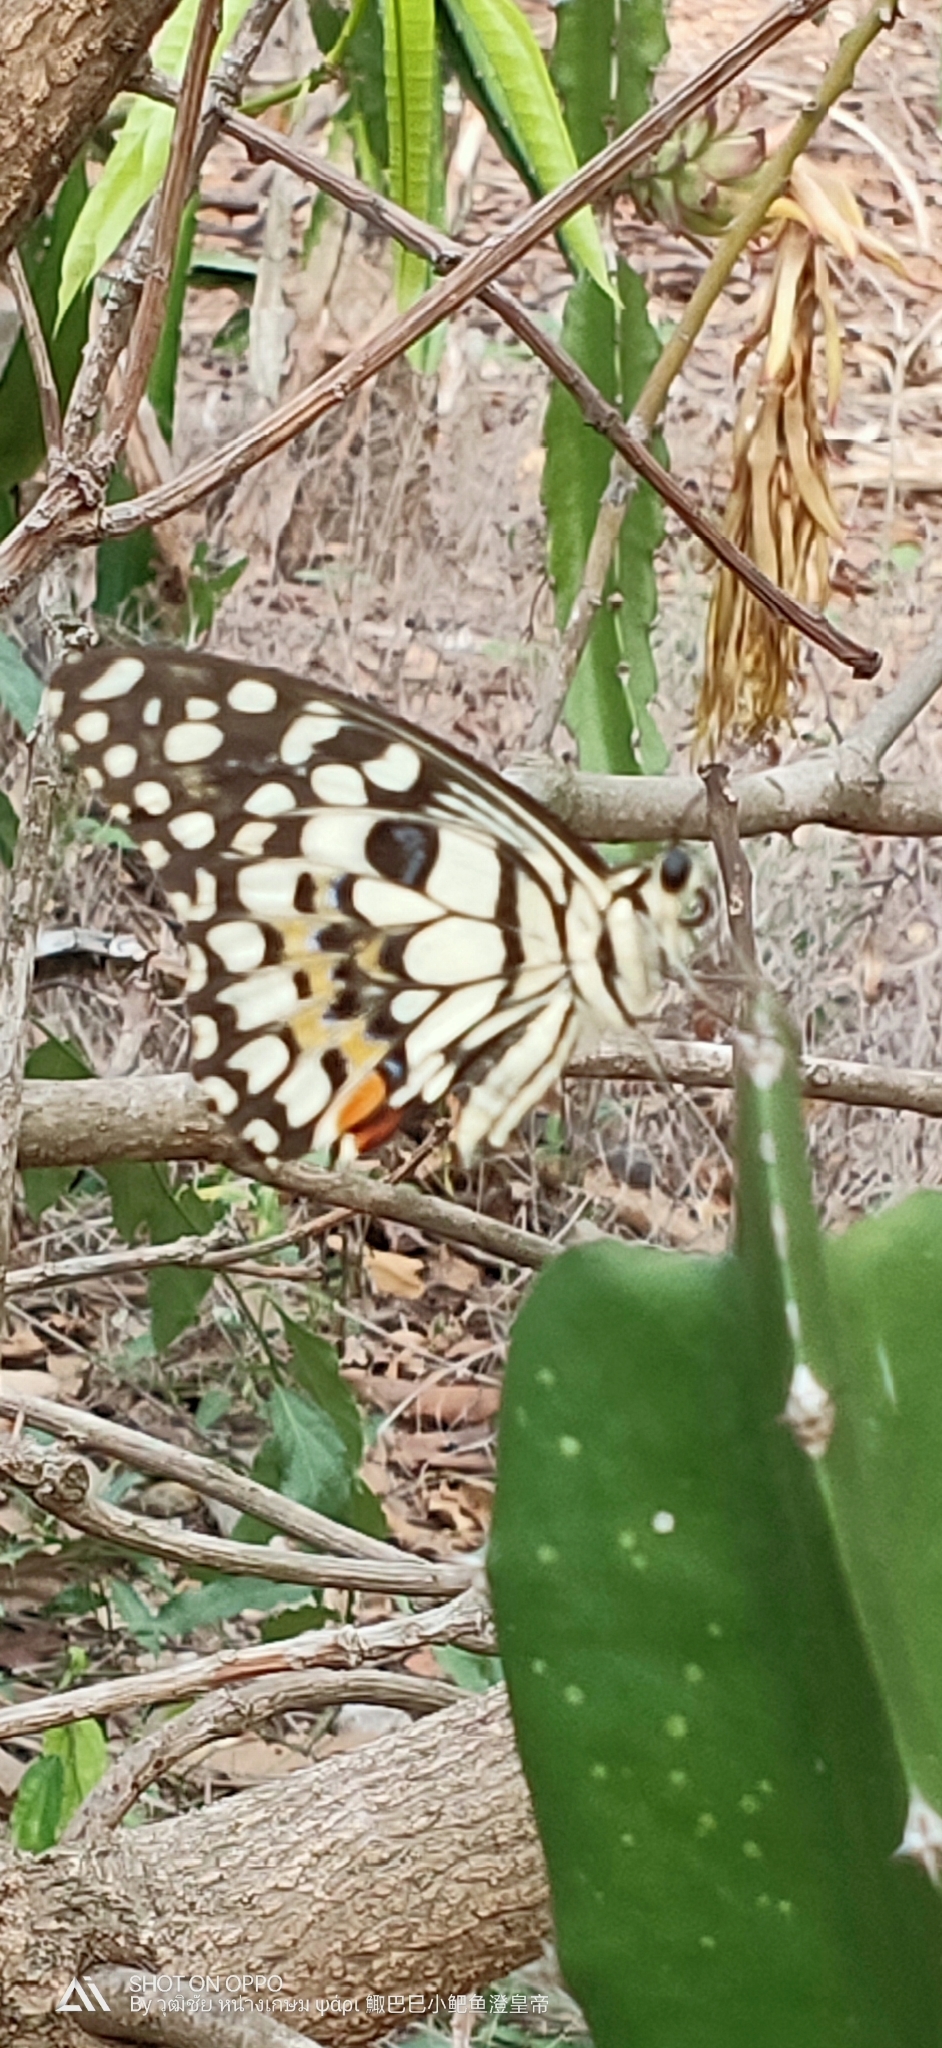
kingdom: Animalia
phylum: Arthropoda
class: Insecta
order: Lepidoptera
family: Papilionidae
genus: Papilio
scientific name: Papilio demoleus
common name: Lime butterfly
